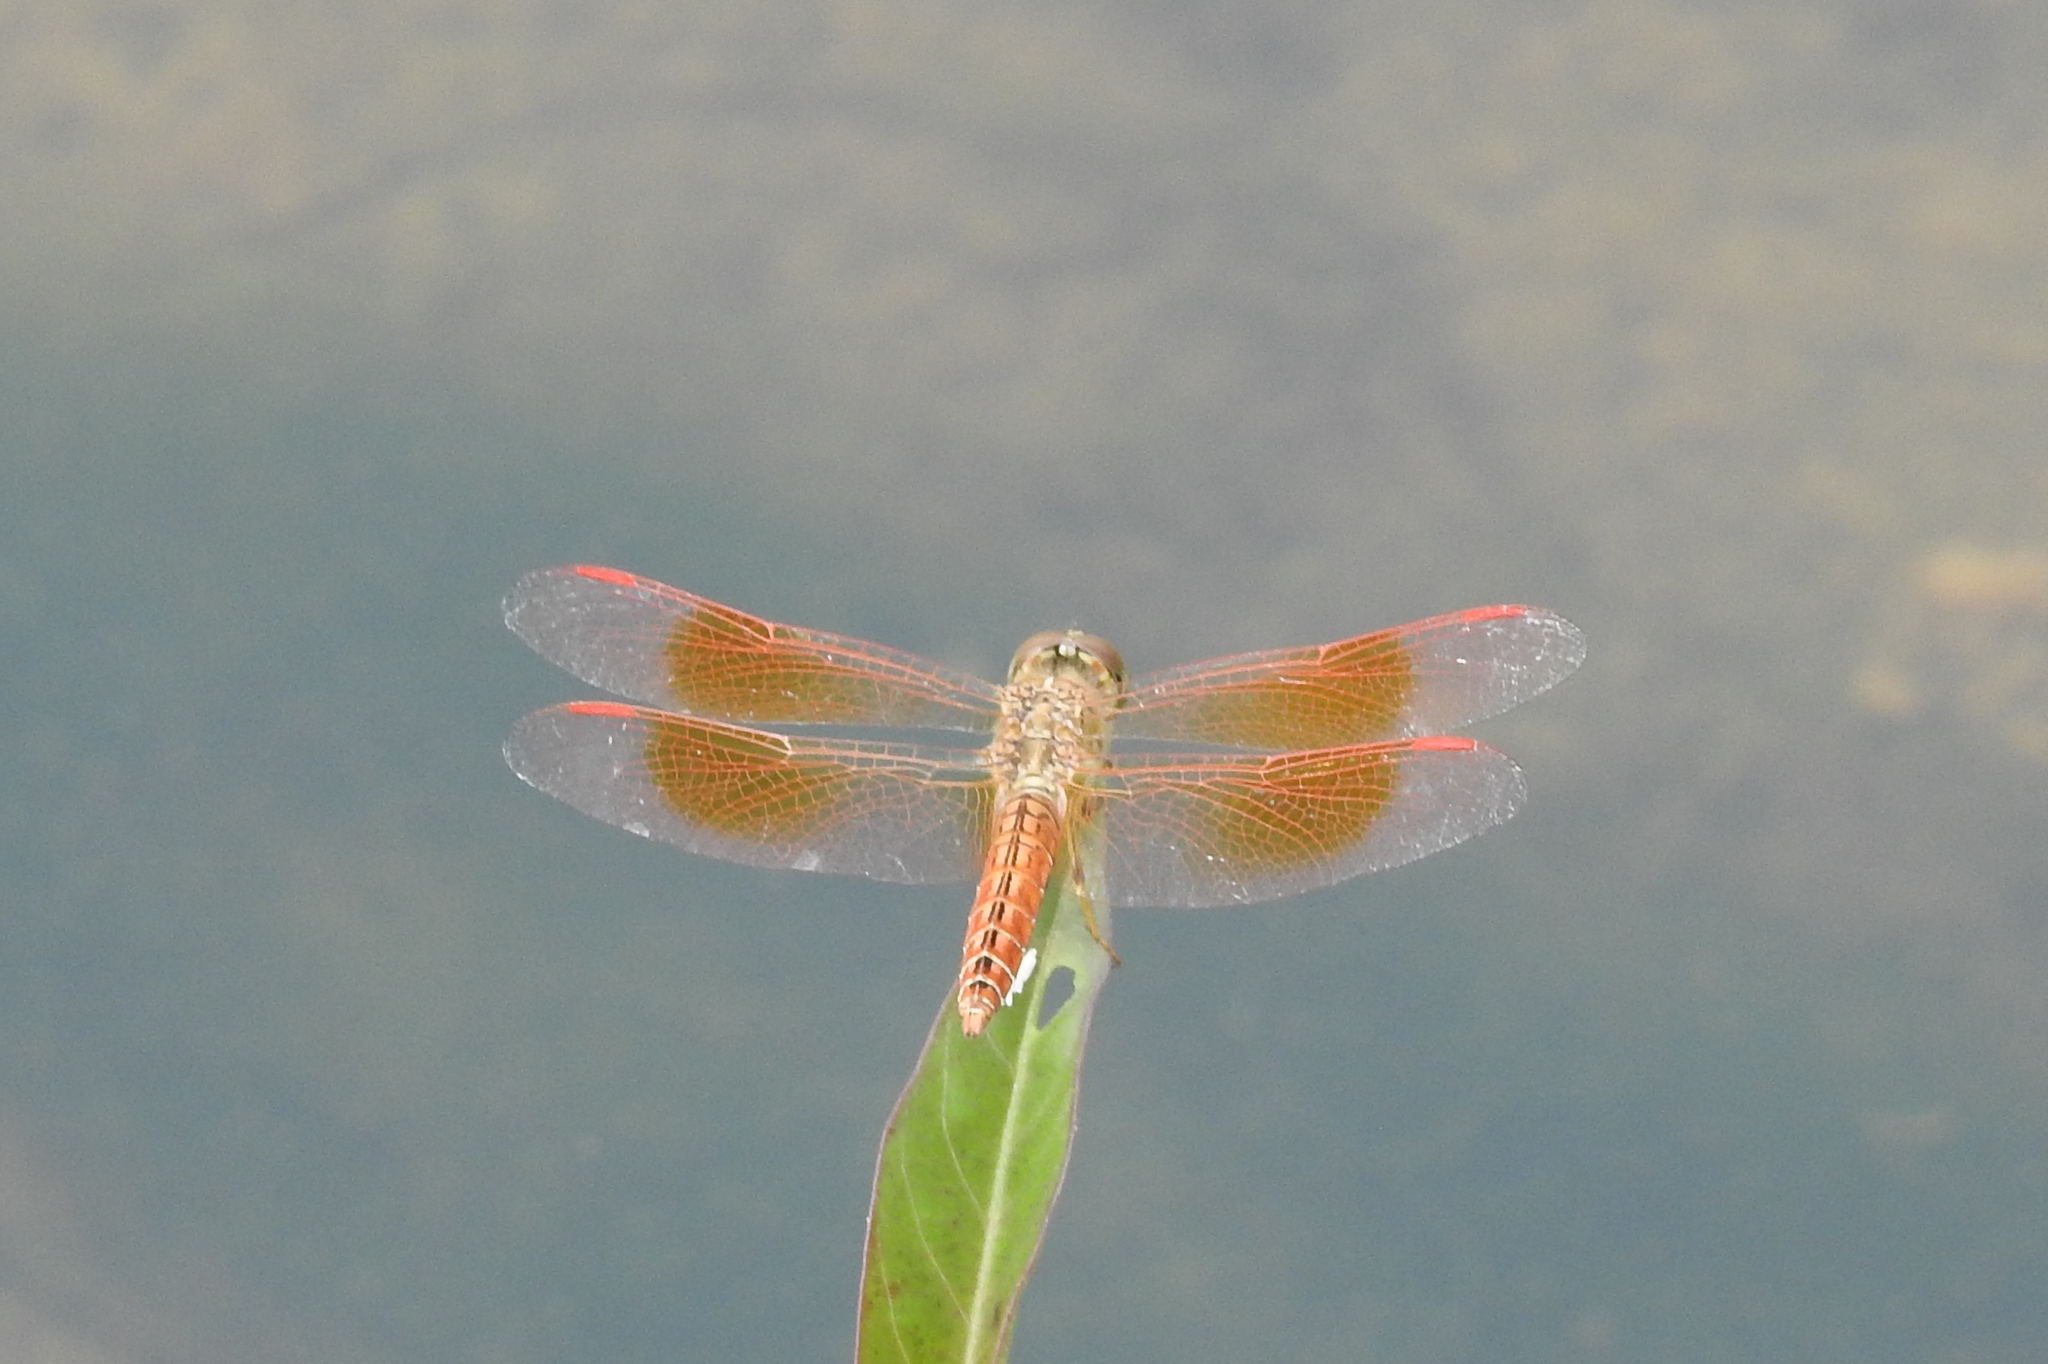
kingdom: Animalia
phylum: Arthropoda
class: Insecta
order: Odonata
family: Libellulidae
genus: Brachythemis
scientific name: Brachythemis contaminata
